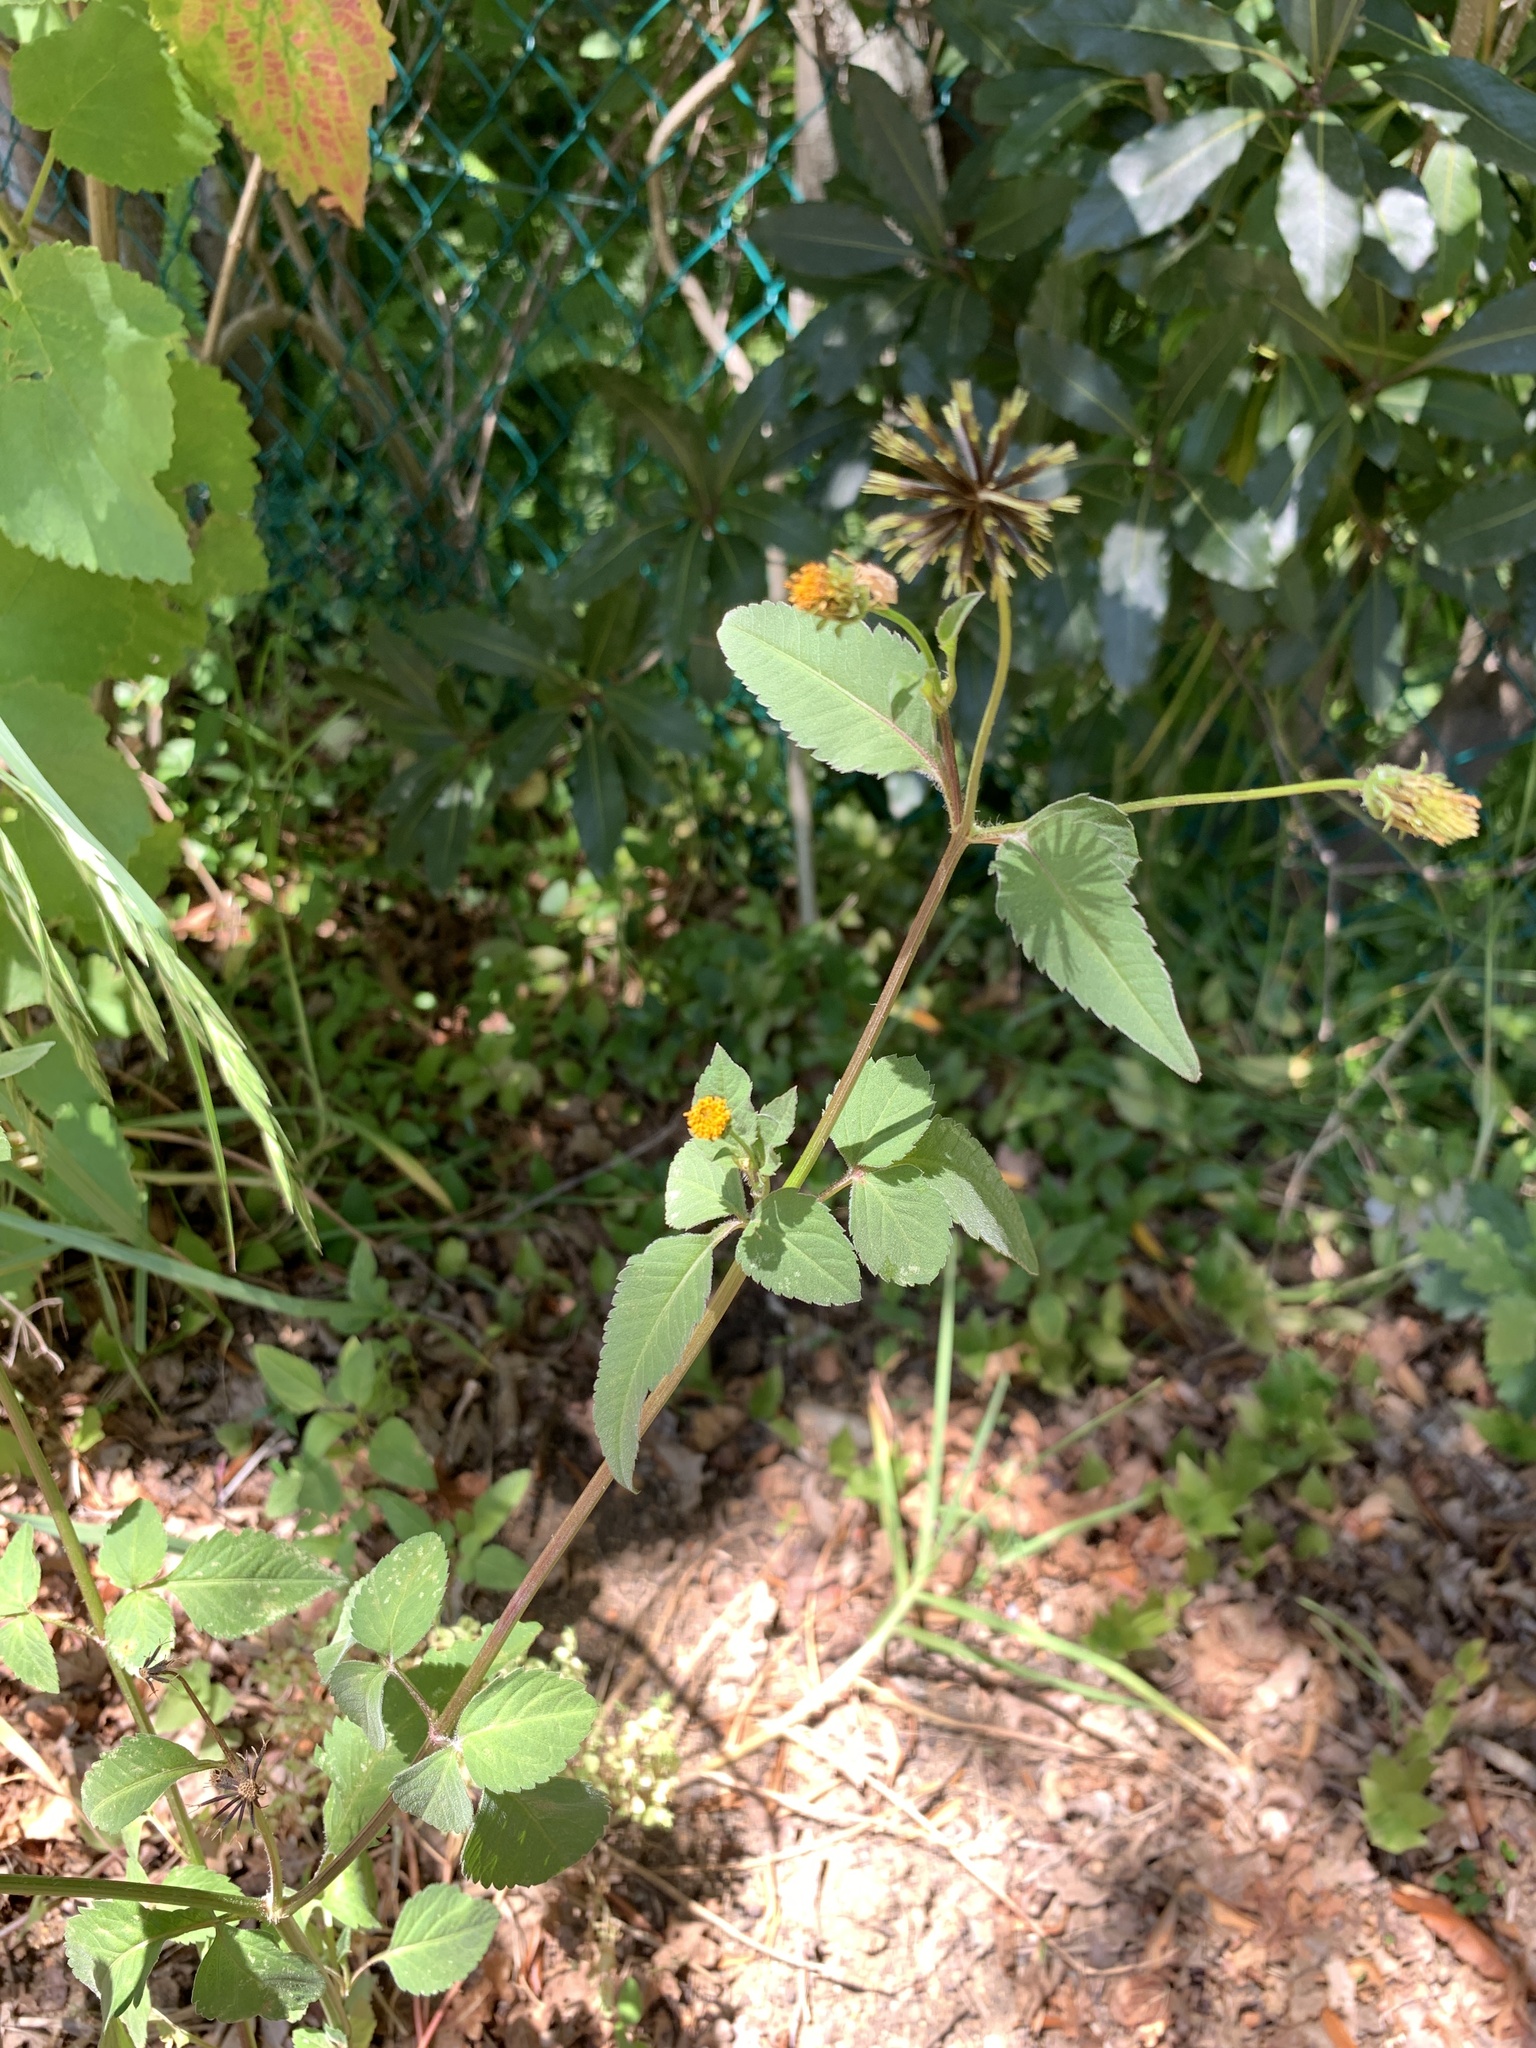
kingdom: Plantae
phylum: Tracheophyta
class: Magnoliopsida
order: Asterales
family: Asteraceae
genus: Bidens
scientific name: Bidens pilosa
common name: Black-jack
